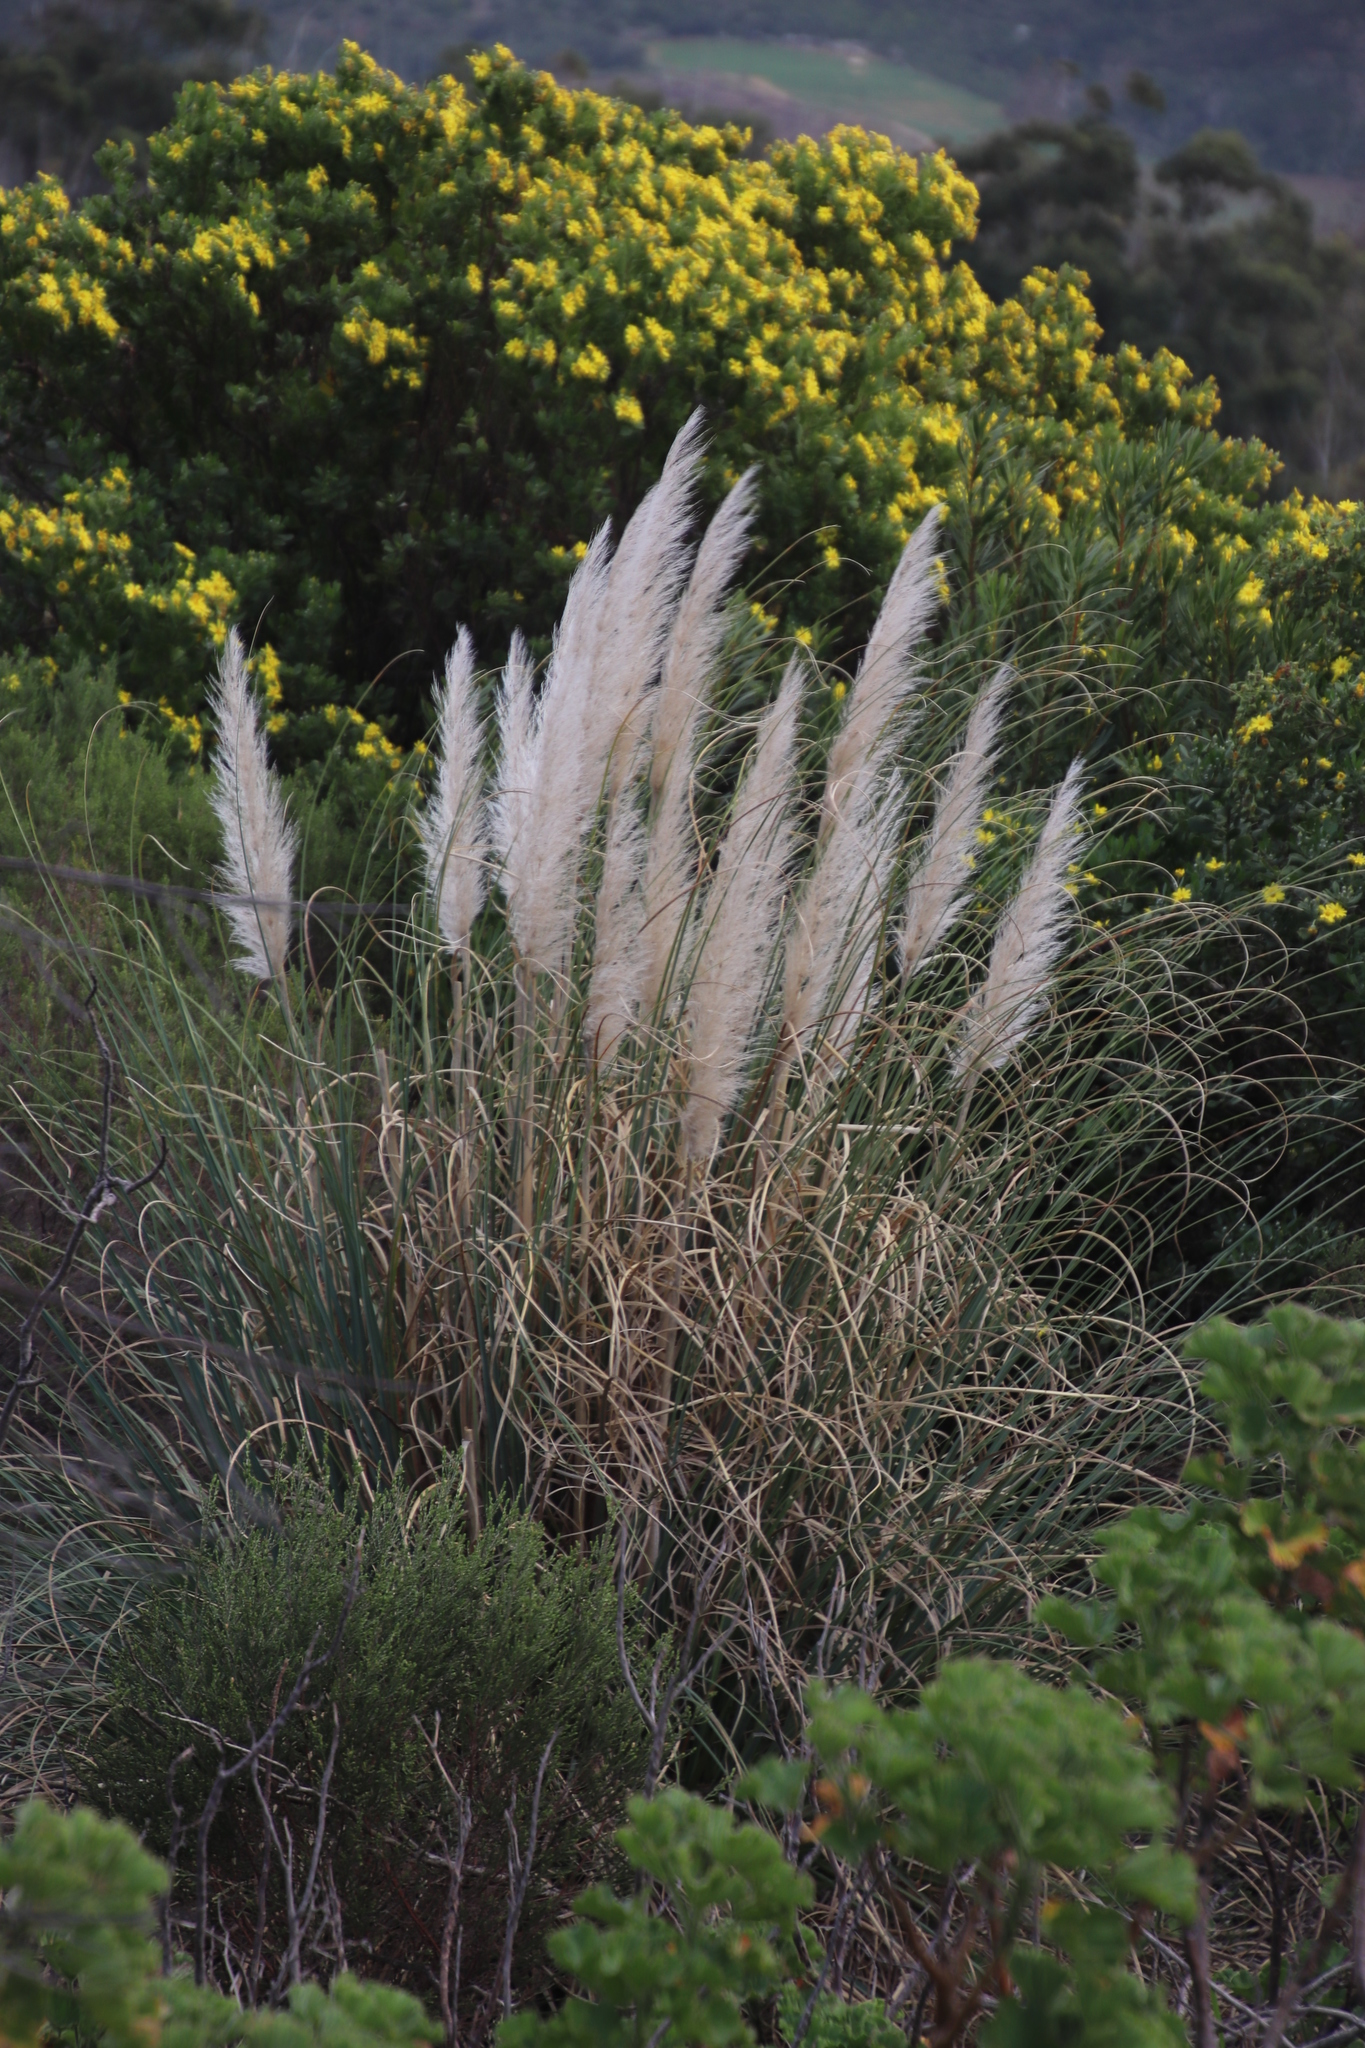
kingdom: Plantae
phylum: Tracheophyta
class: Liliopsida
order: Poales
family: Poaceae
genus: Cortaderia
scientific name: Cortaderia selloana
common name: Uruguayan pampas grass
